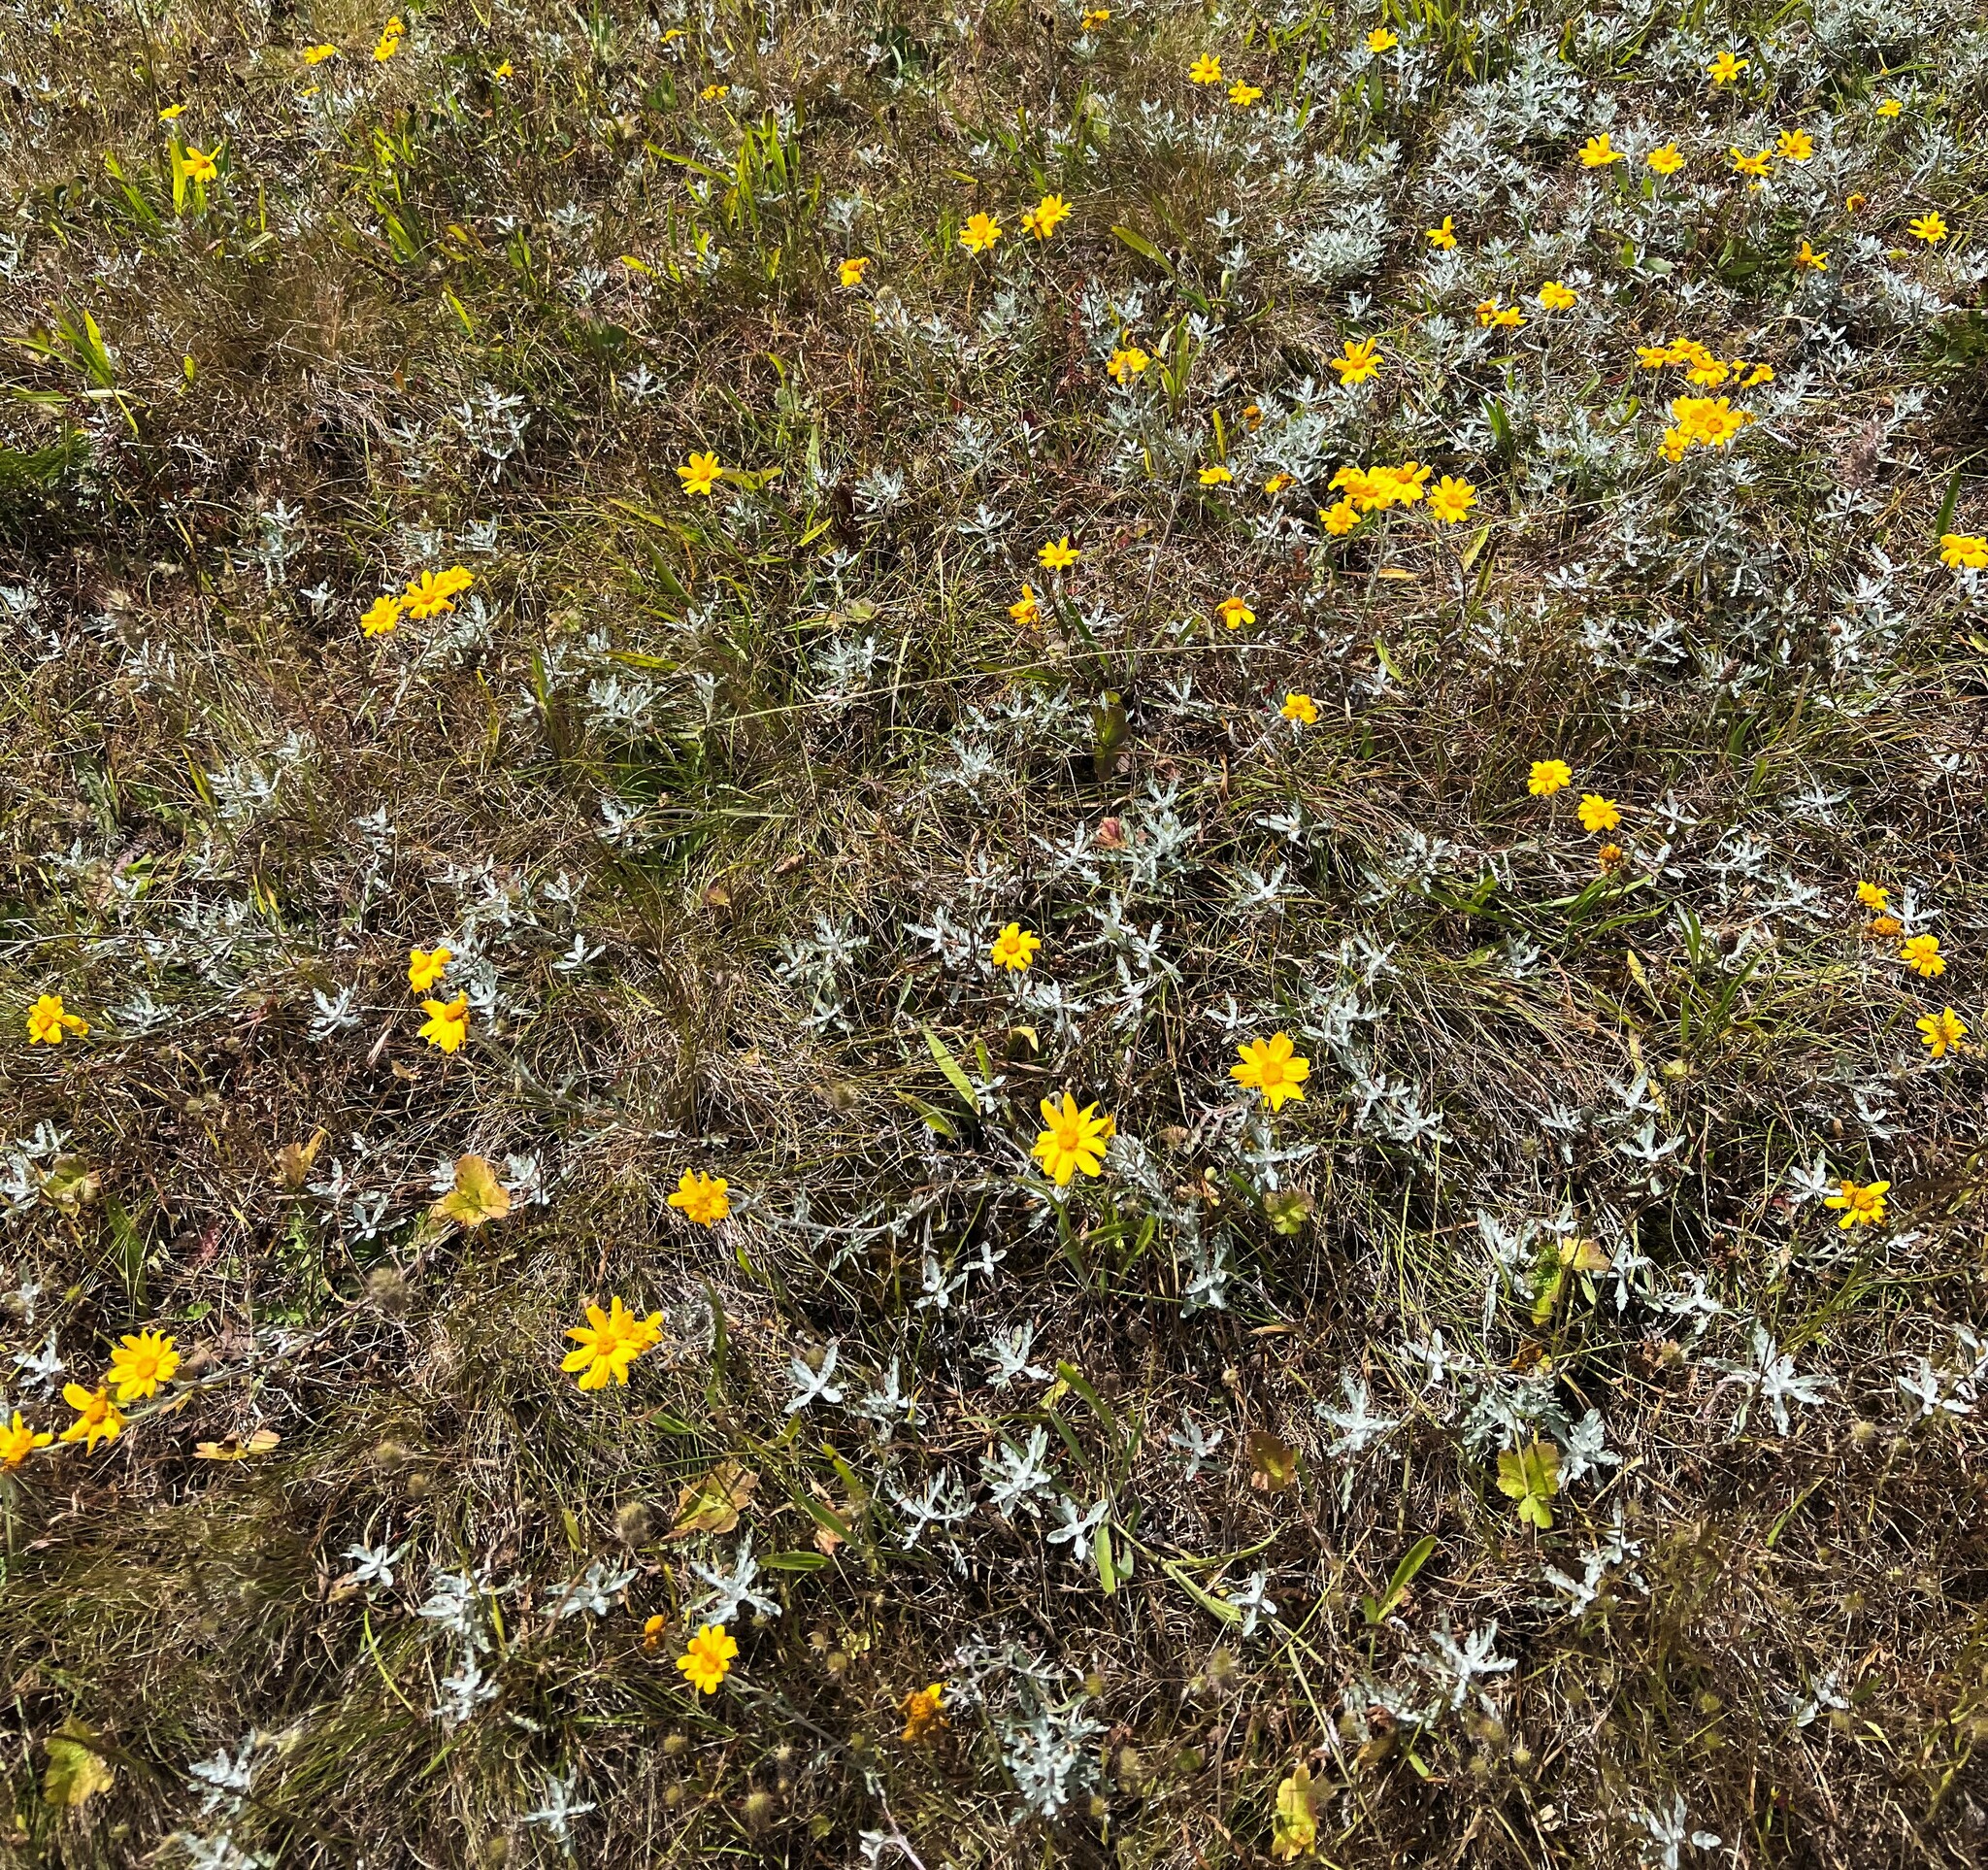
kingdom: Plantae
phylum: Tracheophyta
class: Magnoliopsida
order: Asterales
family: Asteraceae
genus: Eriophyllum
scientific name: Eriophyllum lanatum
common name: Common woolly-sunflower
